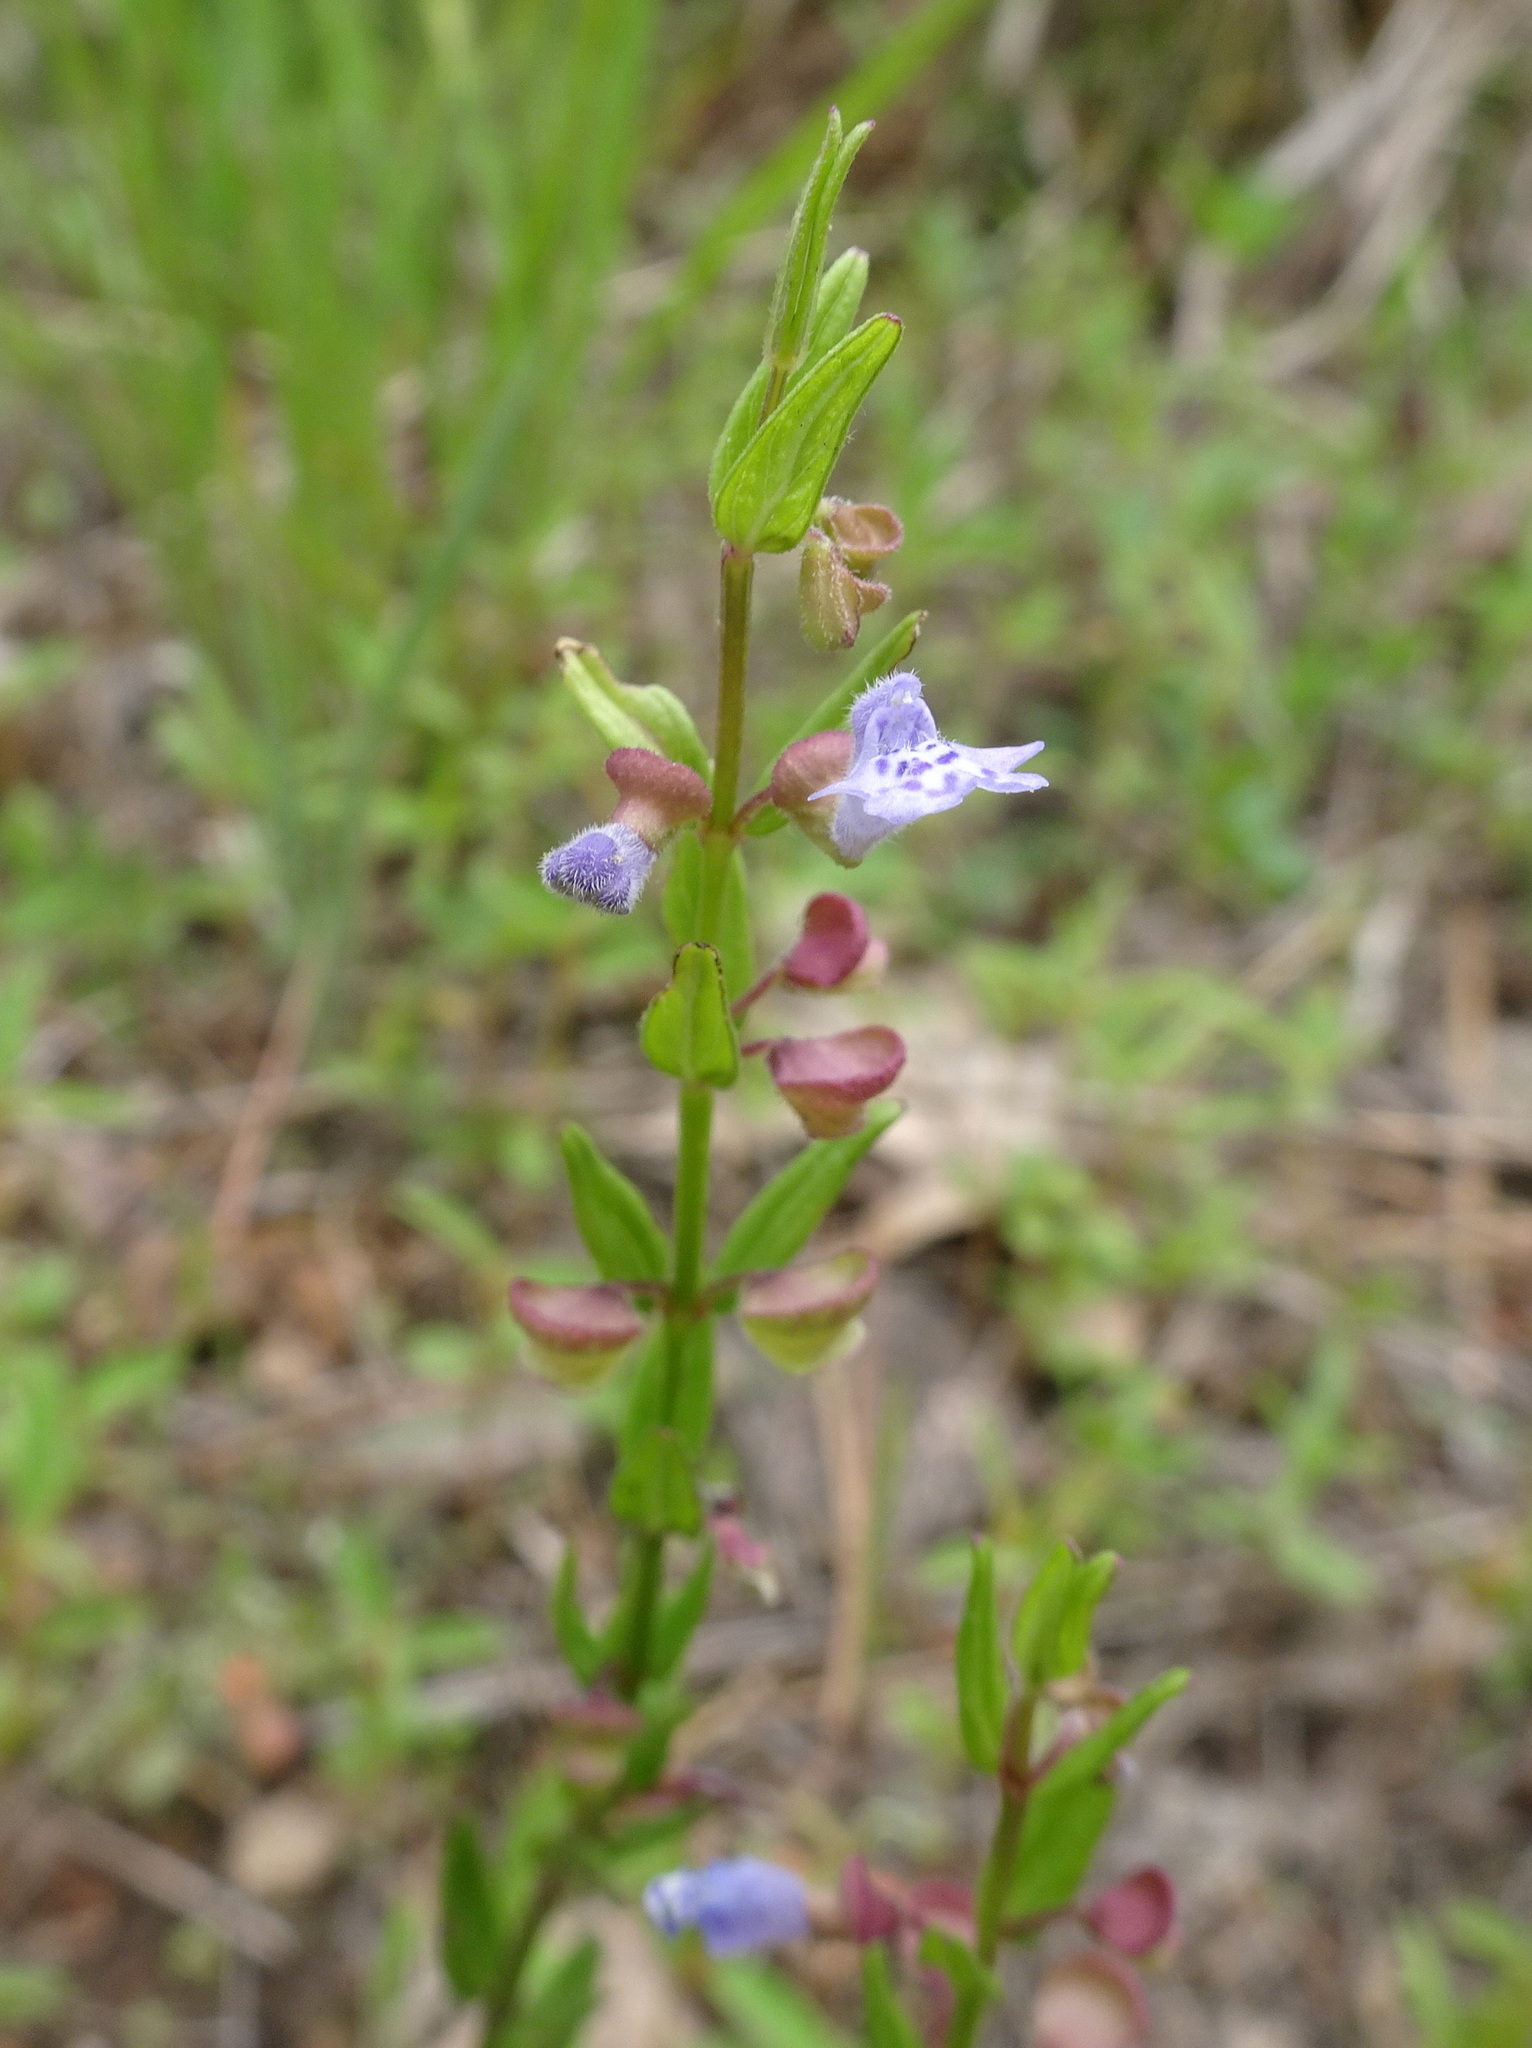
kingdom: Plantae
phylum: Tracheophyta
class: Magnoliopsida
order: Lamiales
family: Lamiaceae
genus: Scutellaria
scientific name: Scutellaria parvula
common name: Little scullcap
